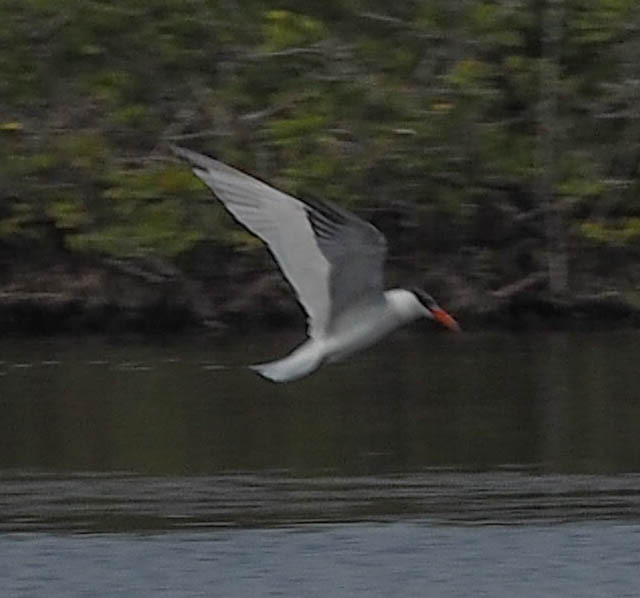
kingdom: Animalia
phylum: Chordata
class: Aves
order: Charadriiformes
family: Laridae
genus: Hydroprogne
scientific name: Hydroprogne caspia
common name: Caspian tern
